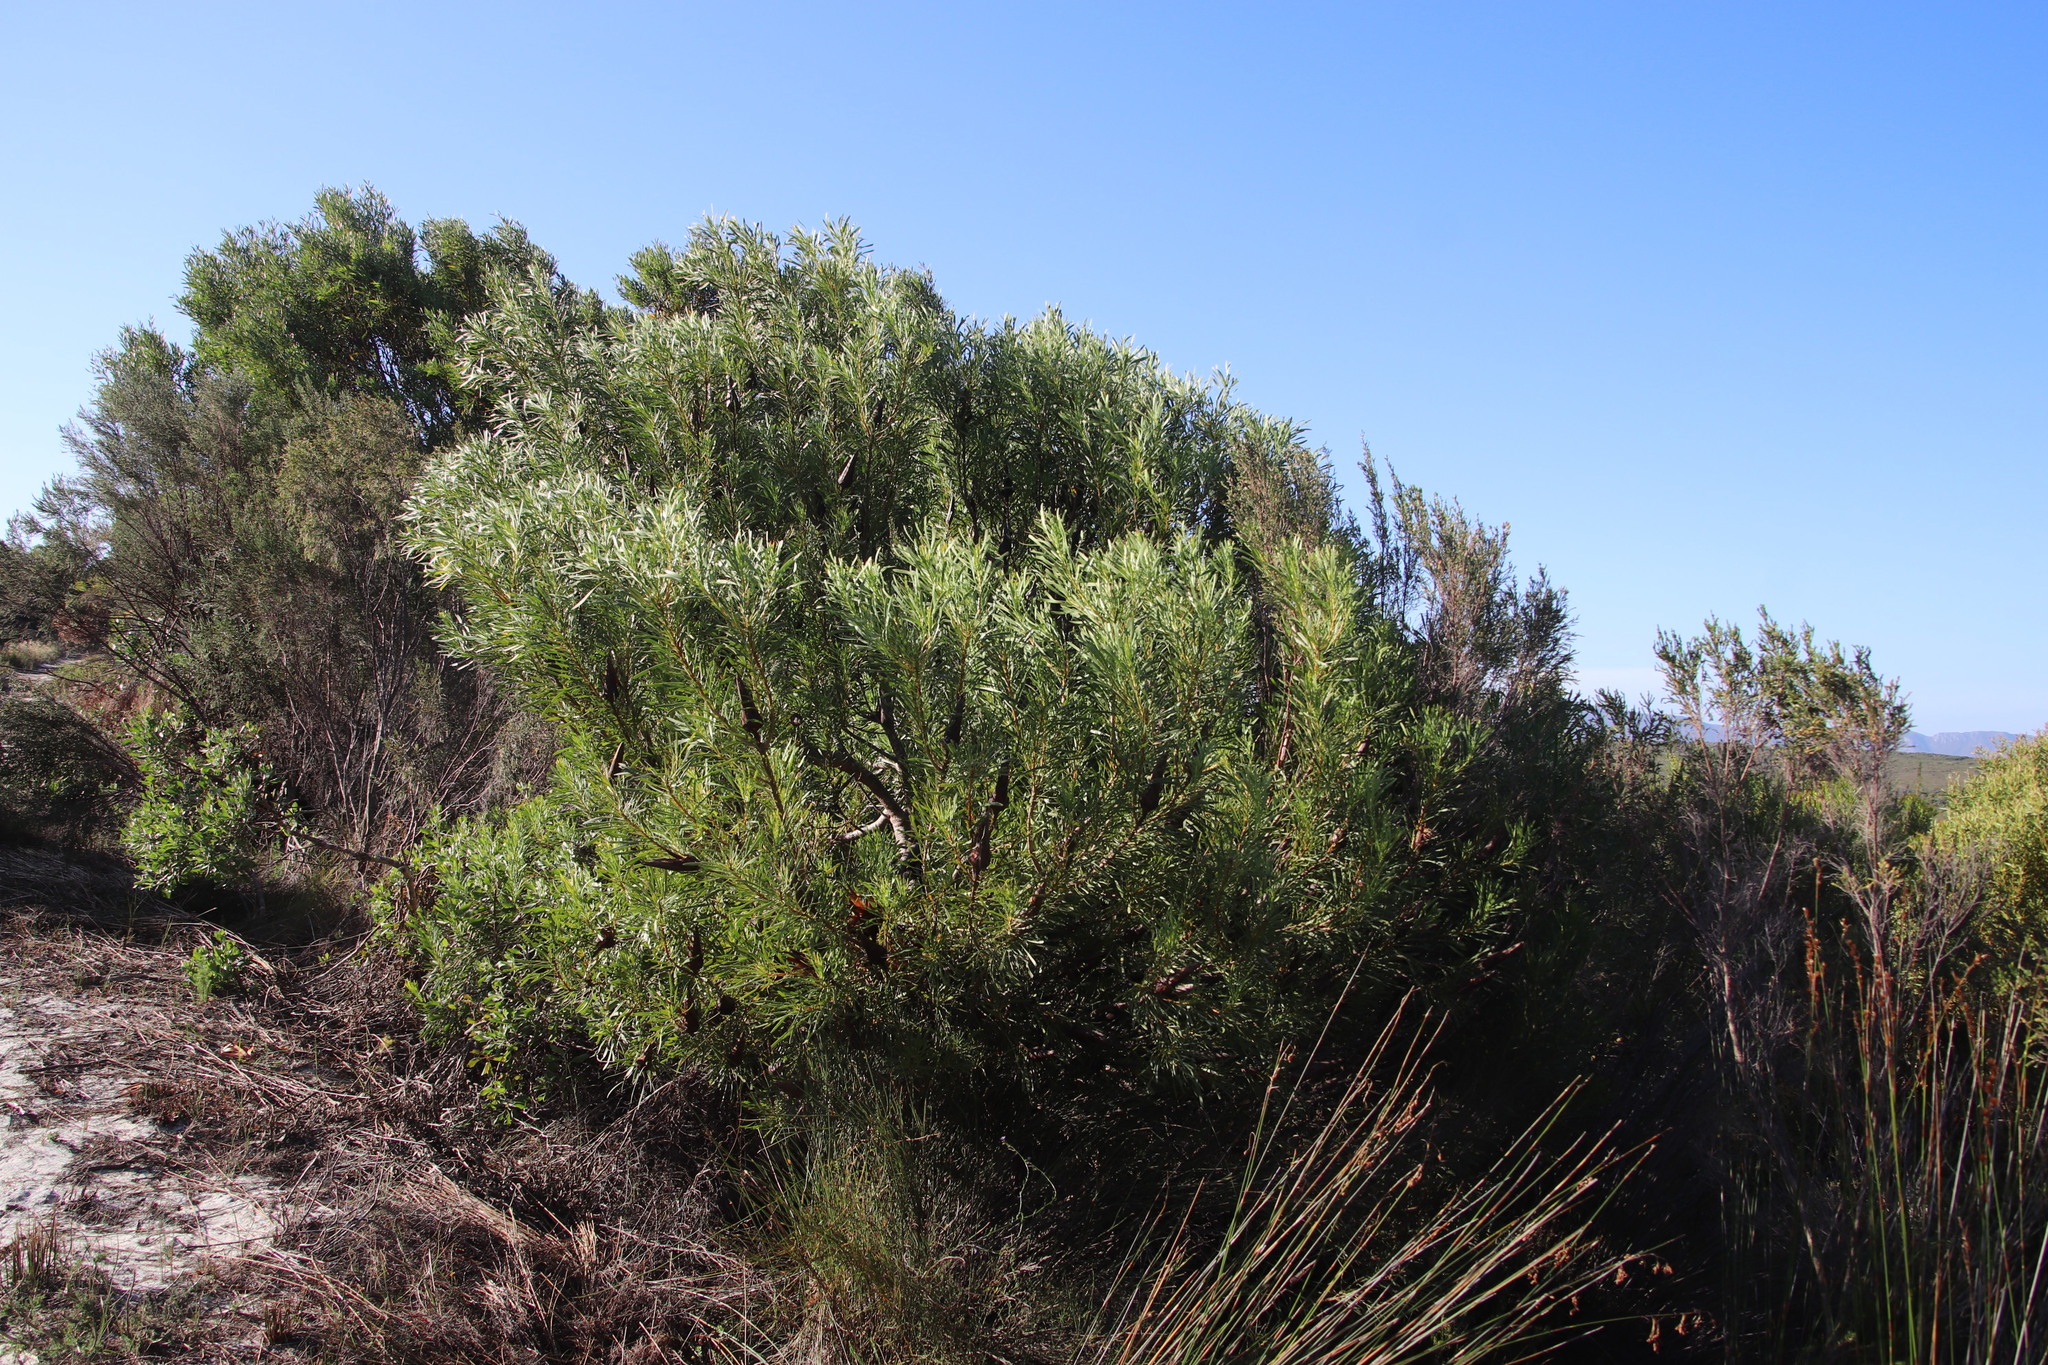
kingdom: Plantae
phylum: Tracheophyta
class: Magnoliopsida
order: Proteales
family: Proteaceae
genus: Protea
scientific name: Protea repens
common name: Sugarbush
